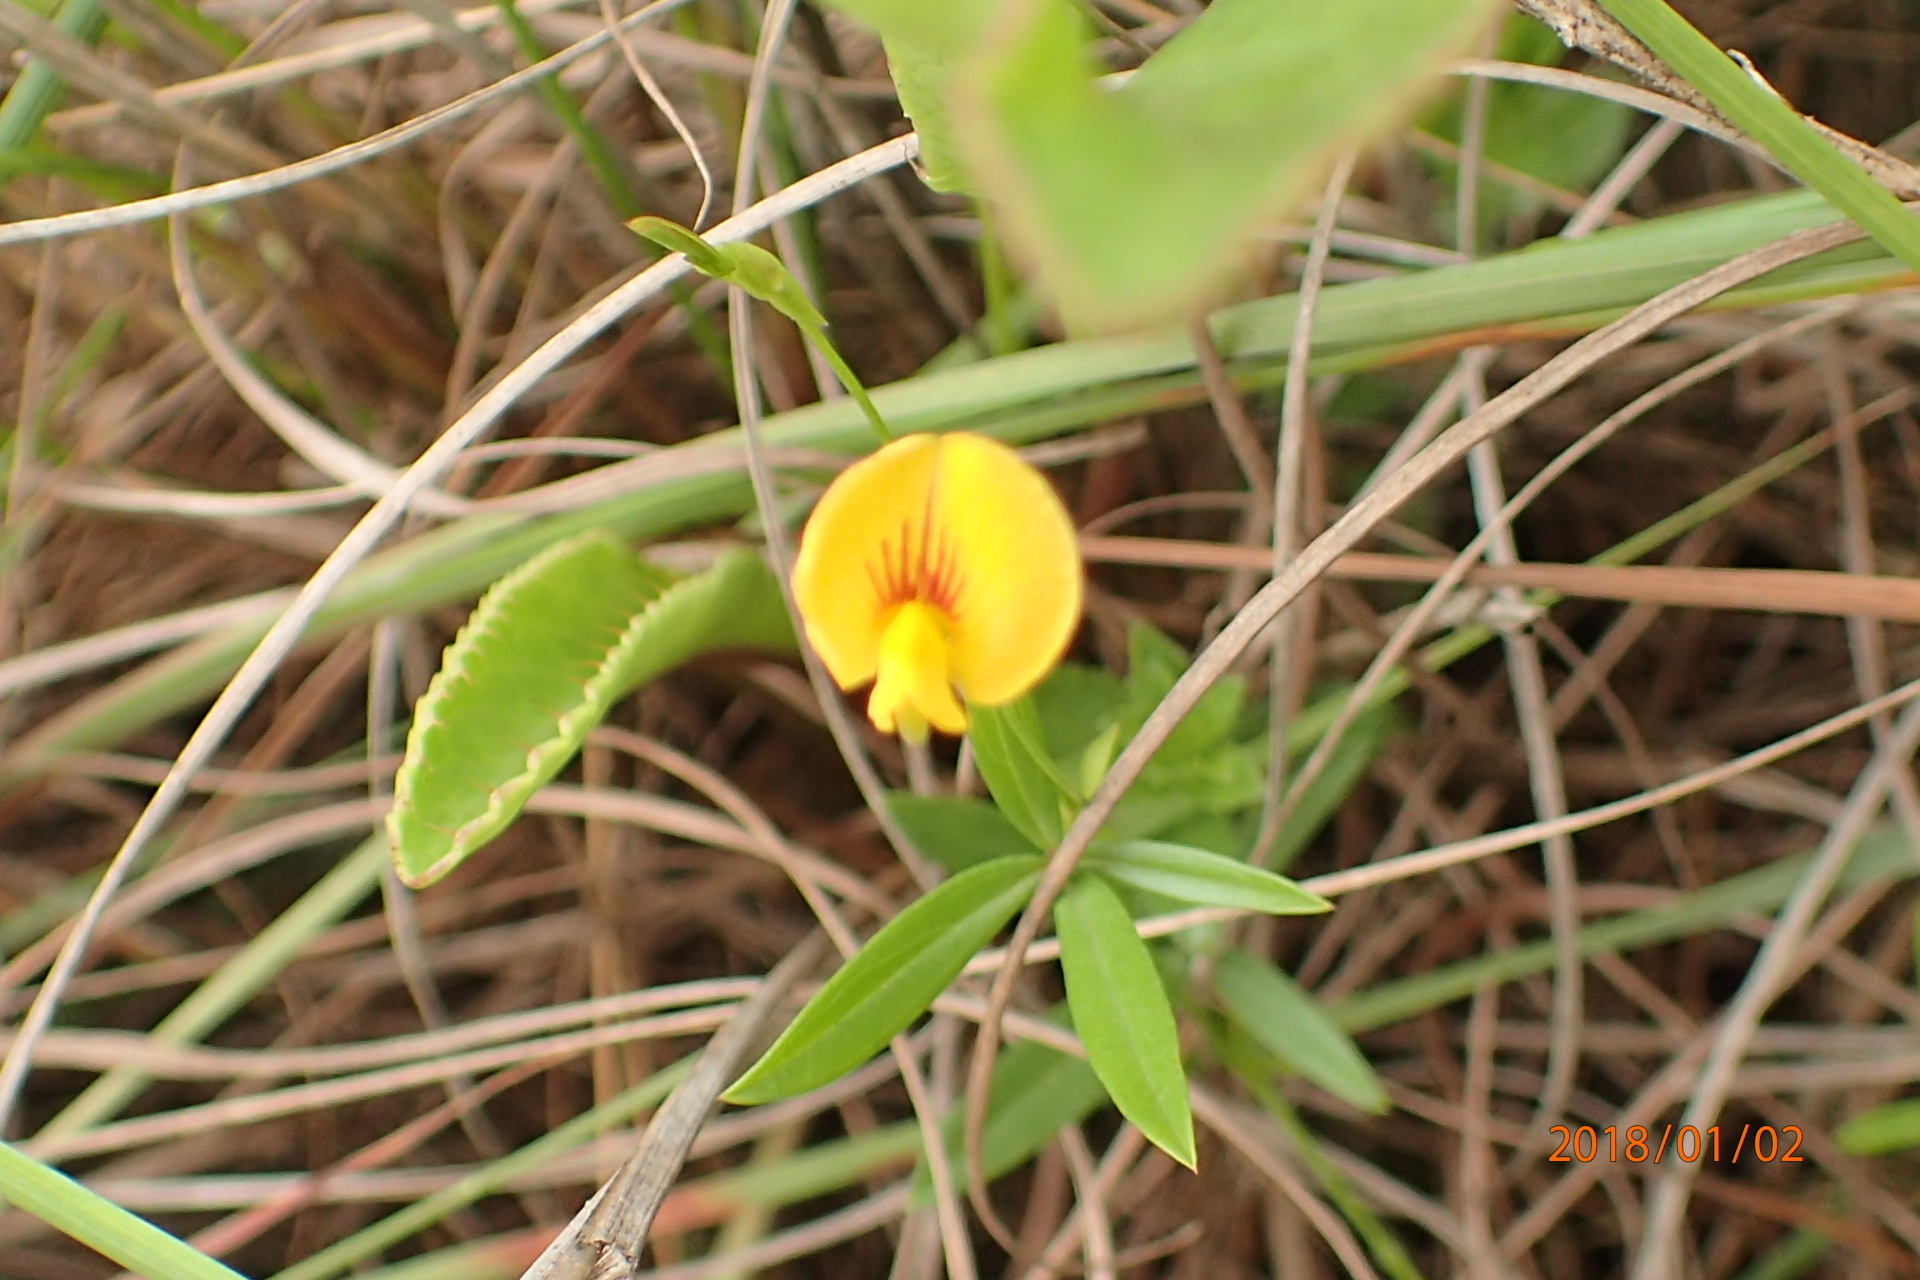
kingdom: Plantae
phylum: Tracheophyta
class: Magnoliopsida
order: Fabales
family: Fabaceae
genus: Zornia
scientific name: Zornia capensis
